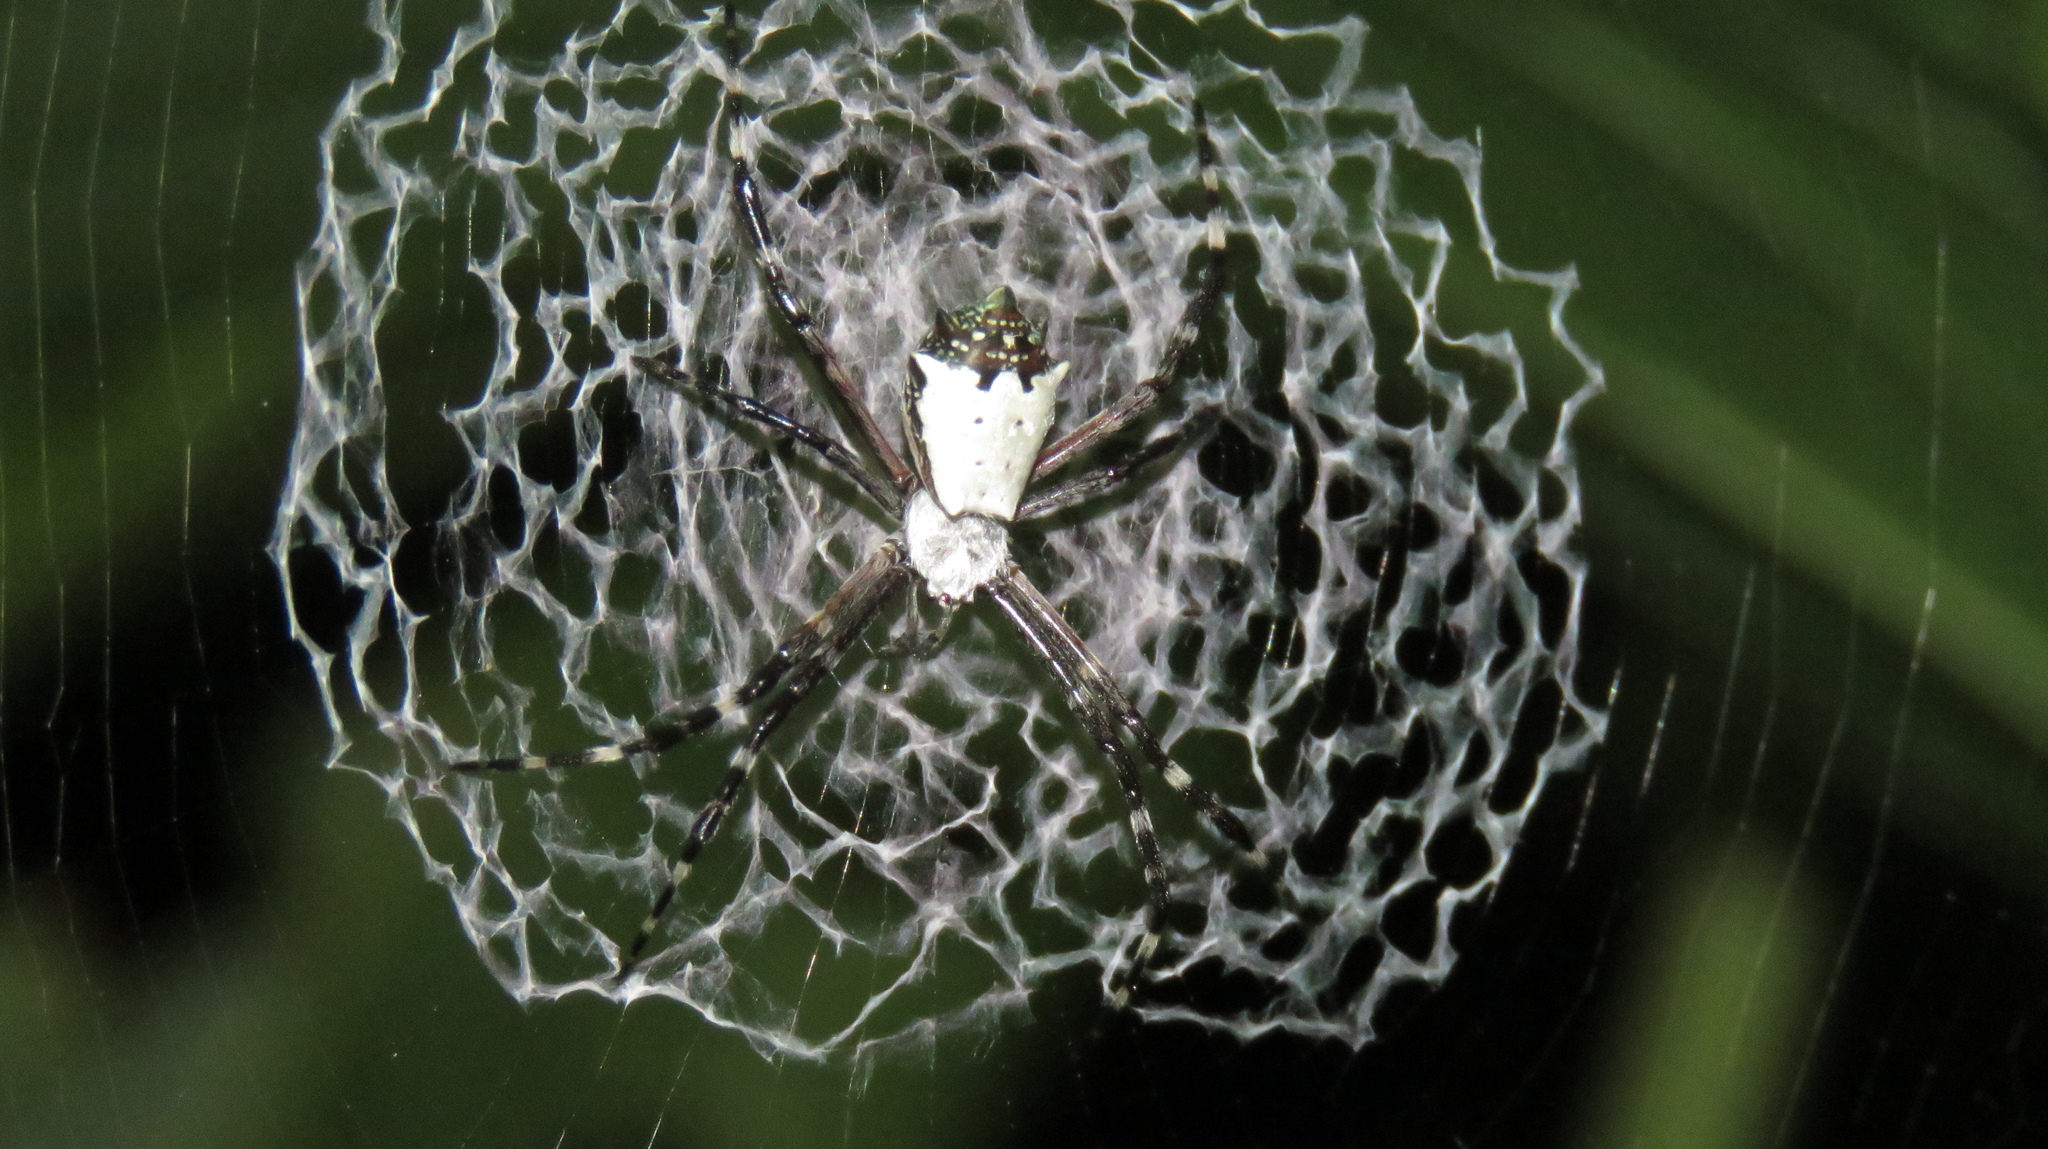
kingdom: Animalia
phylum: Arthropoda
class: Arachnida
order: Araneae
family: Araneidae
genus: Argiope
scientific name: Argiope submaronica
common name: Orb weavers
